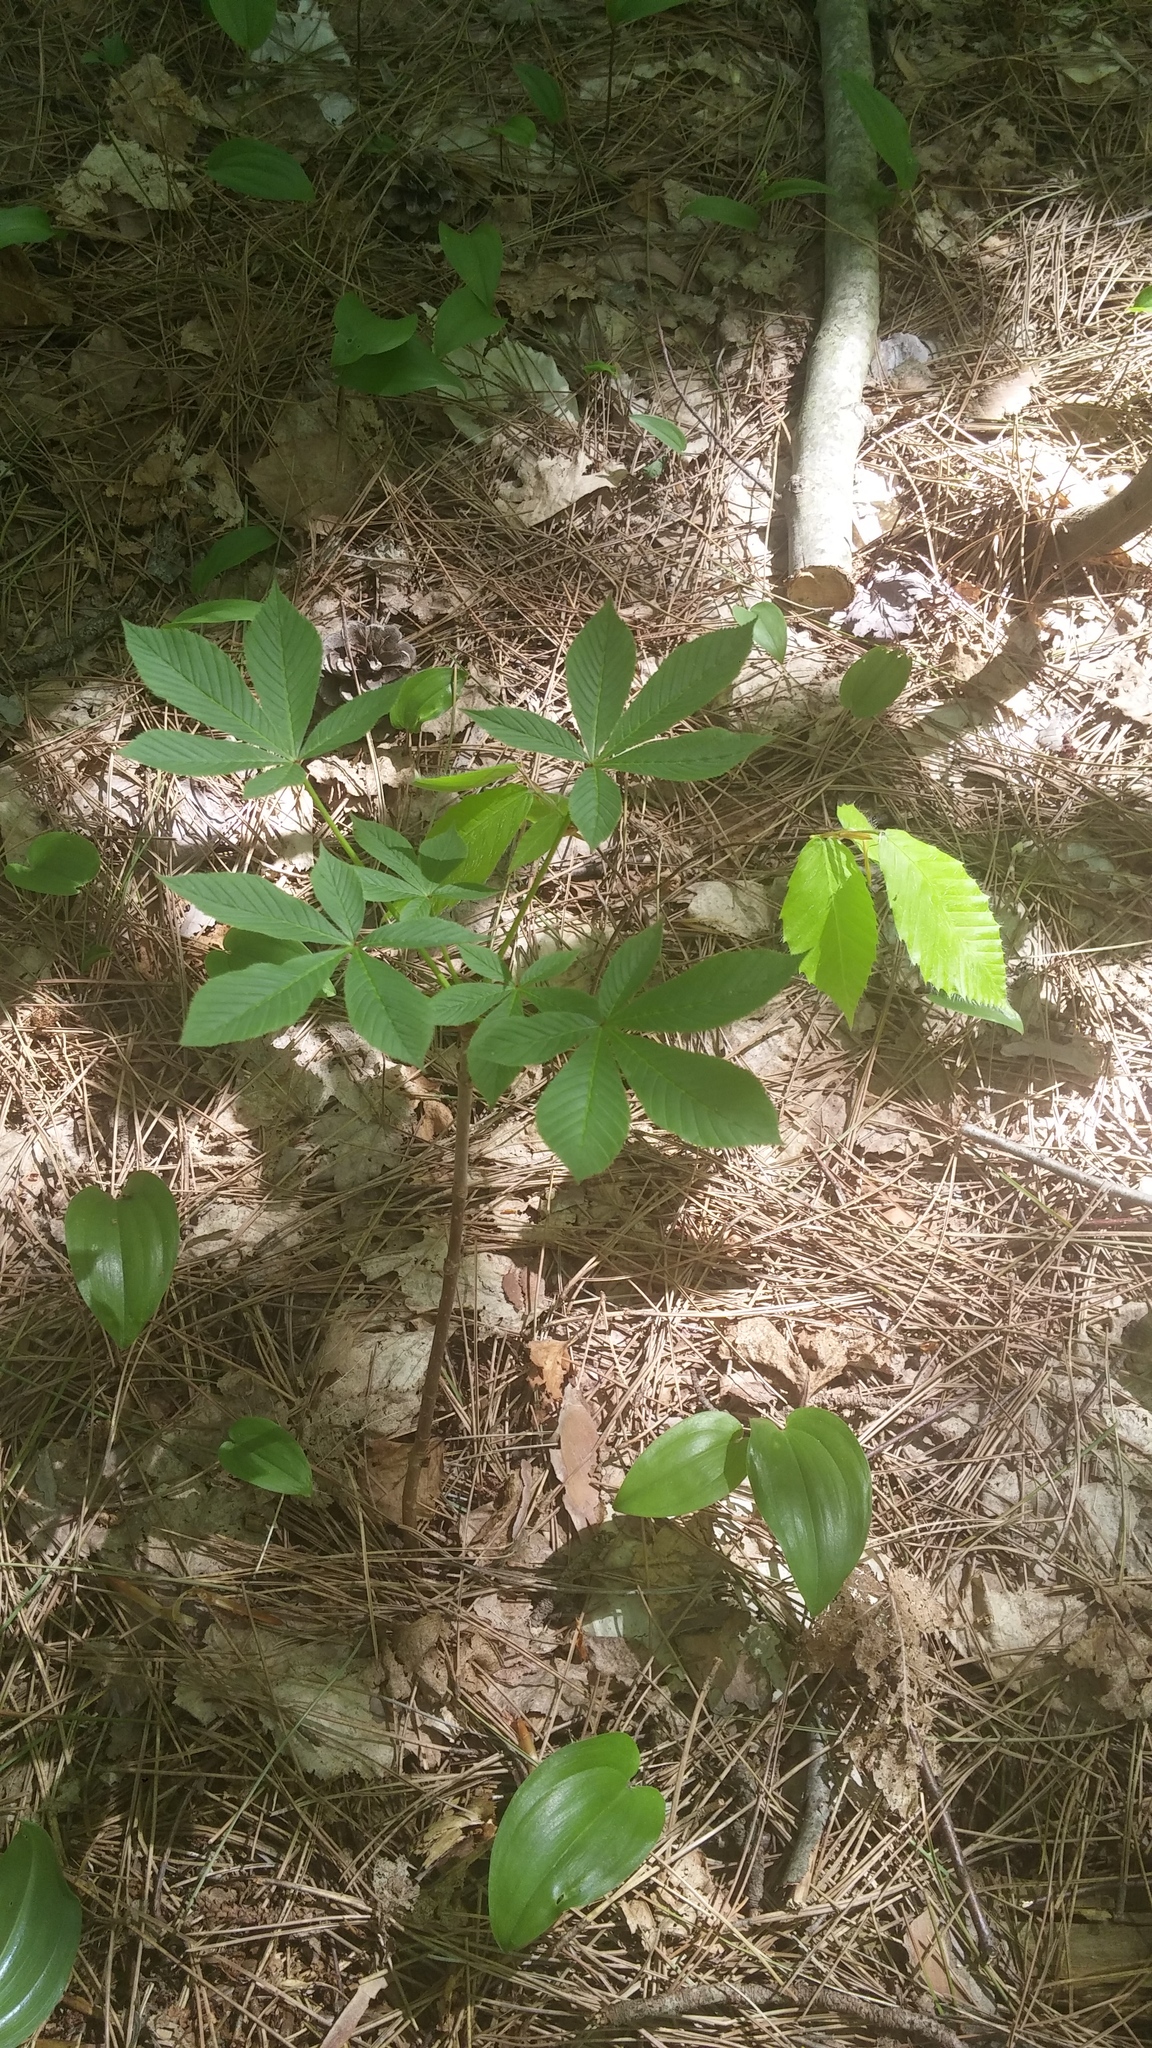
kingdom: Plantae
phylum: Tracheophyta
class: Magnoliopsida
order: Sapindales
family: Sapindaceae
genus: Aesculus
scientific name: Aesculus glabra
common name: Ohio buckeye
